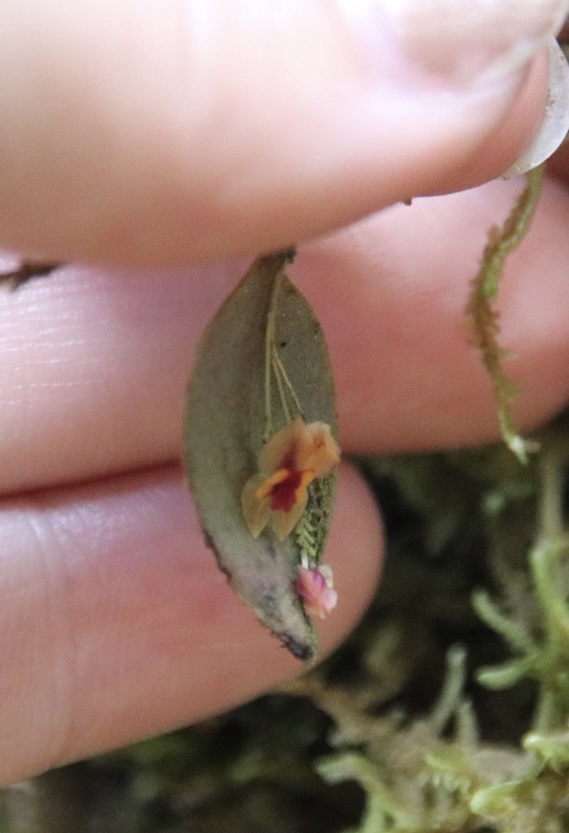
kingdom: Plantae
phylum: Tracheophyta
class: Liliopsida
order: Asparagales
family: Orchidaceae
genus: Lepanthes
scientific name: Lepanthes woodburyana
